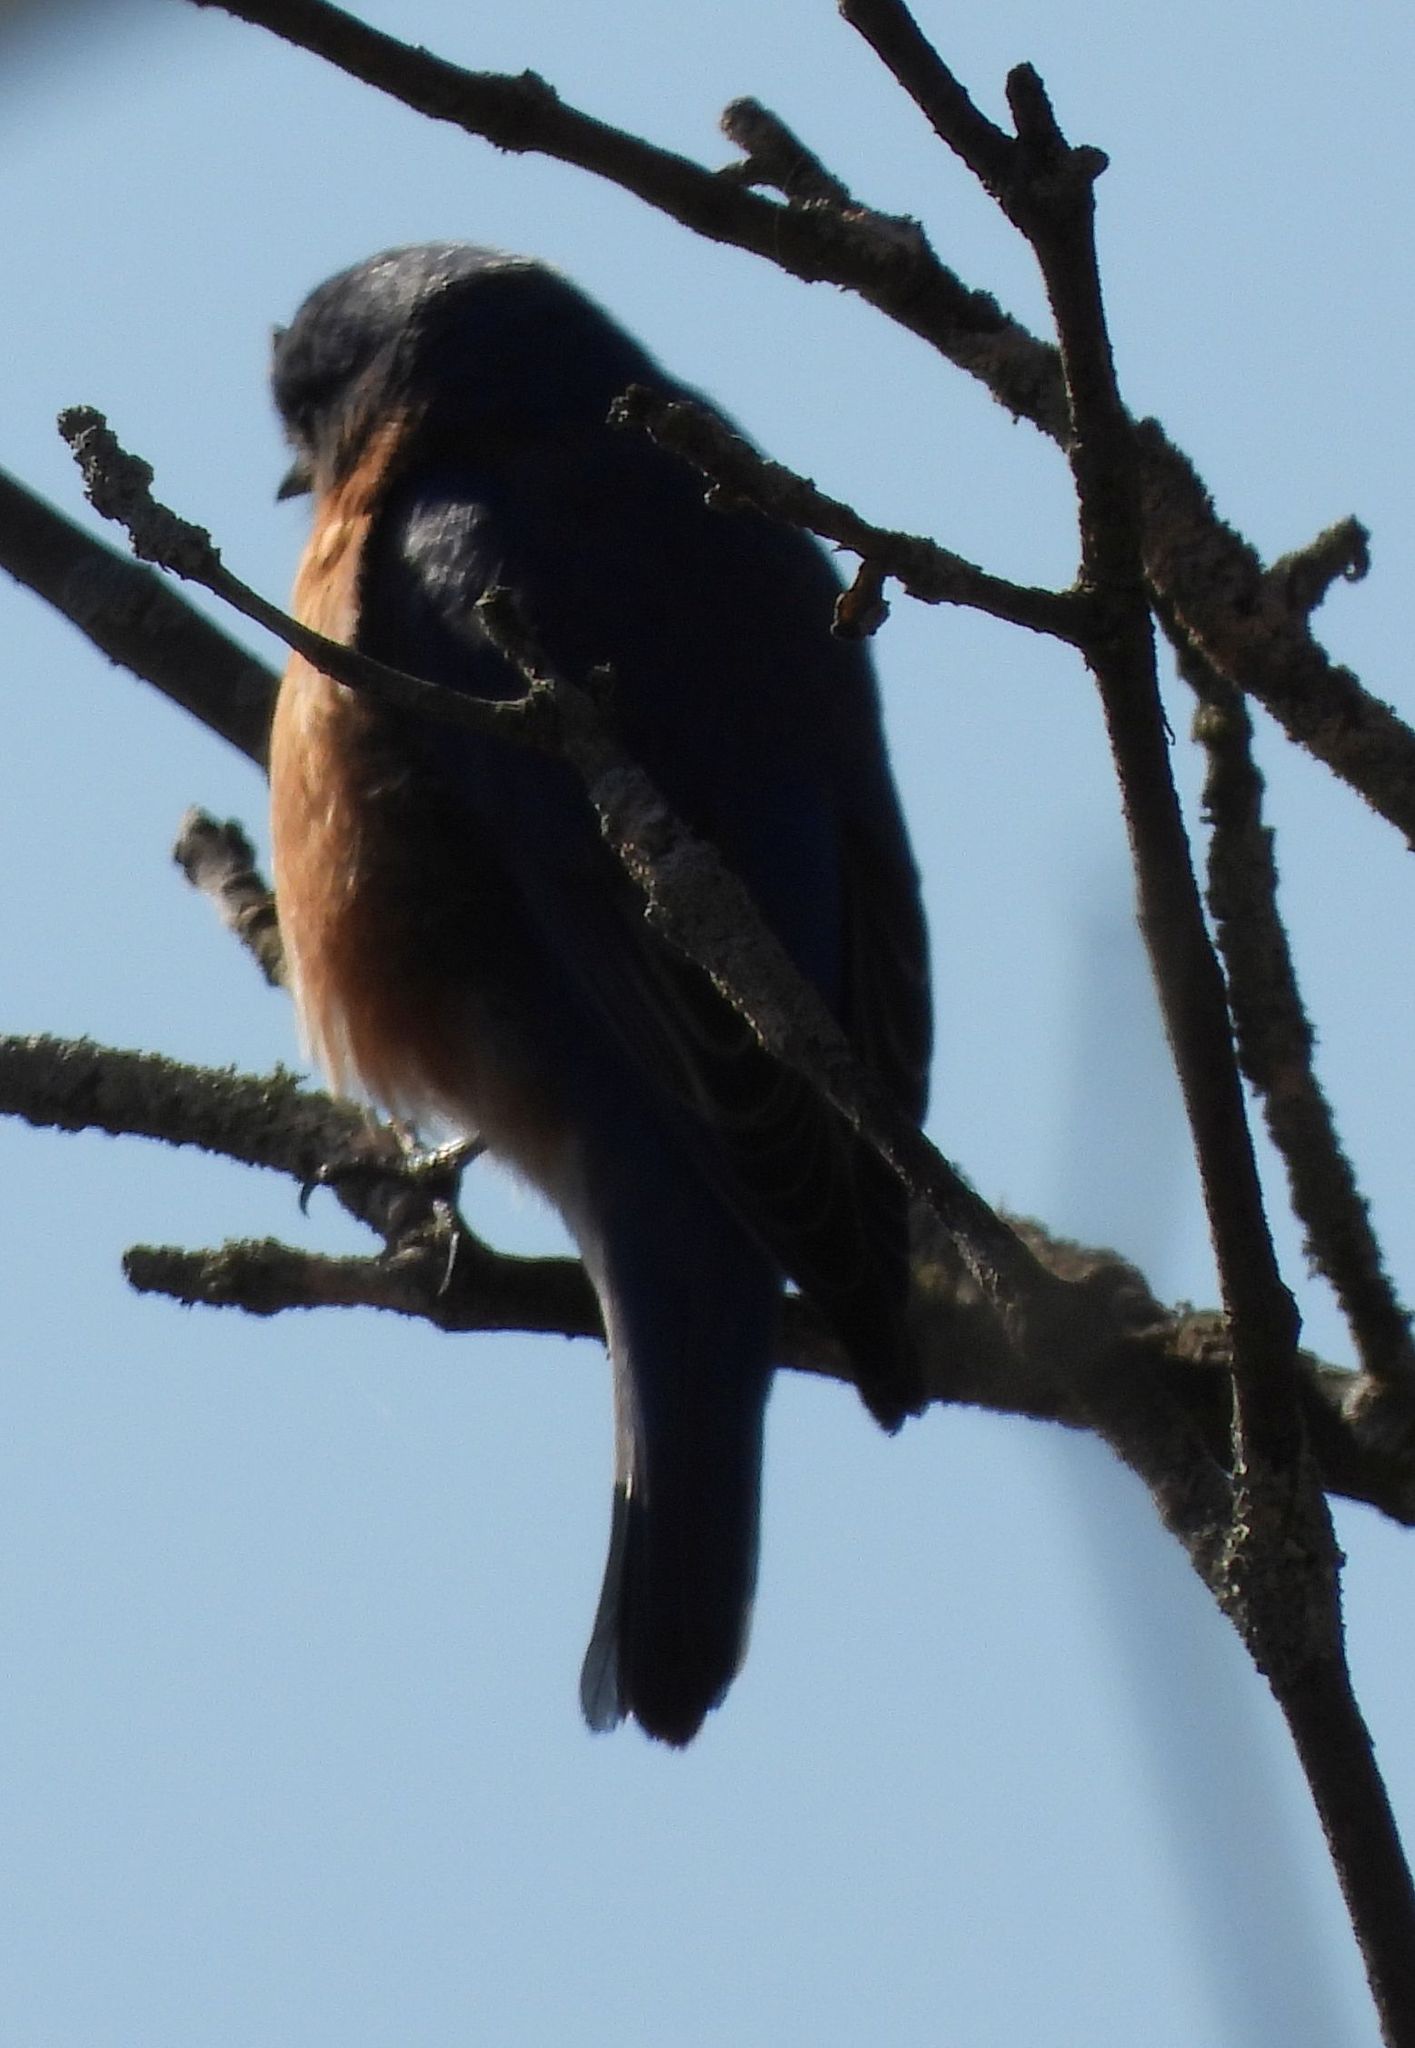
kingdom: Animalia
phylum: Chordata
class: Aves
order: Passeriformes
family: Turdidae
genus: Sialia
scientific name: Sialia sialis
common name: Eastern bluebird
